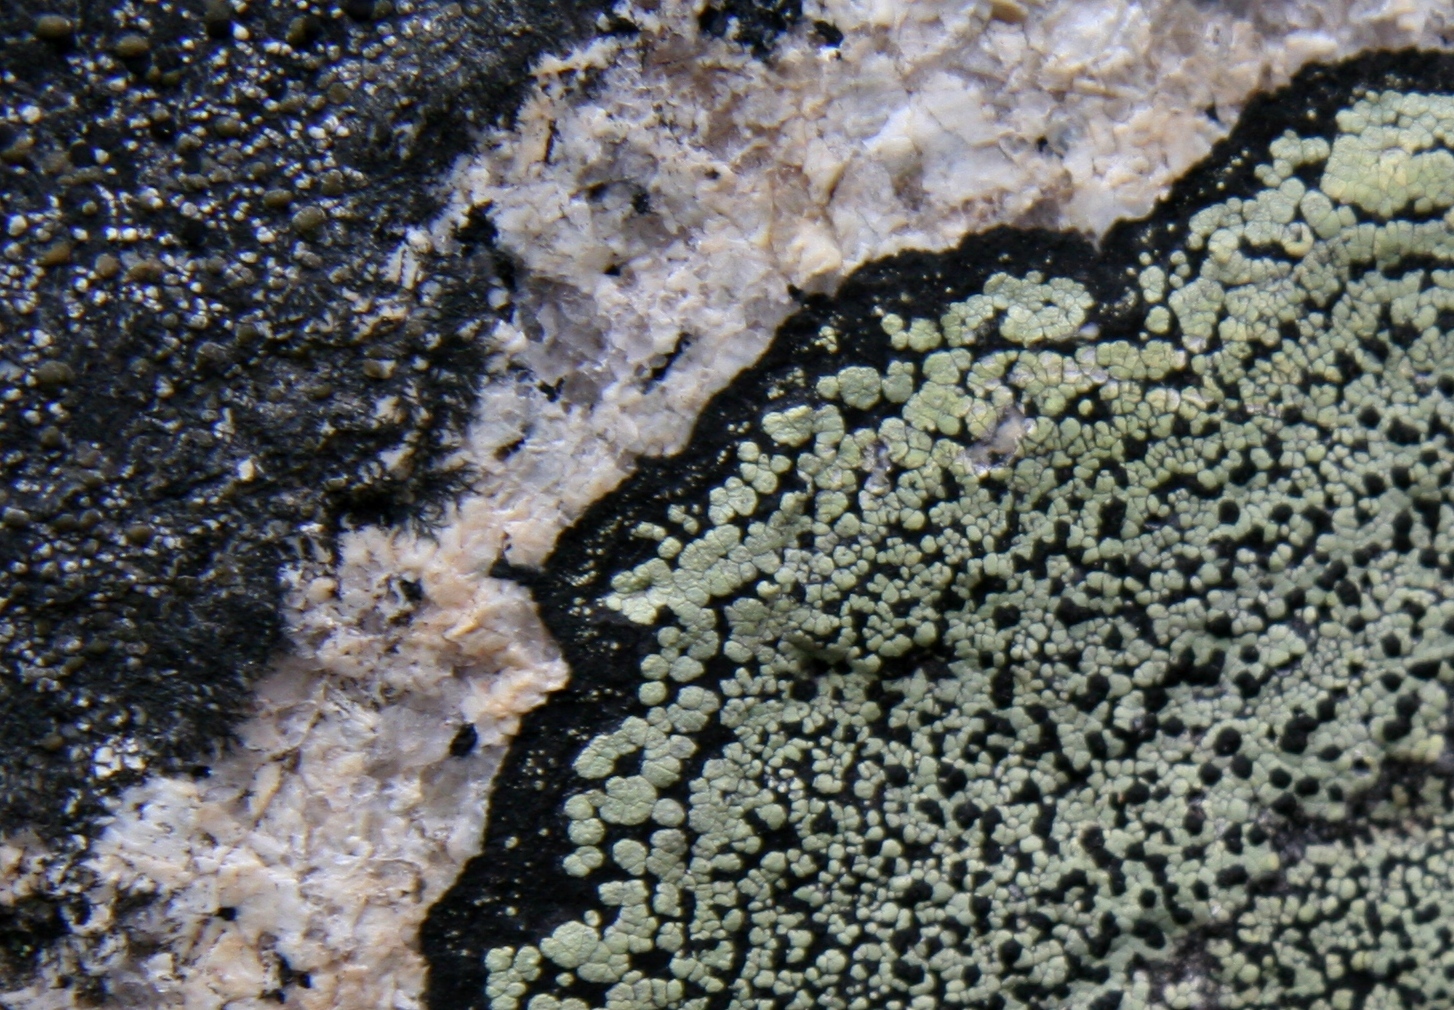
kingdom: Fungi
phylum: Ascomycota
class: Lecanoromycetes
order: Rhizocarpales
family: Rhizocarpaceae
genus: Rhizocarpon
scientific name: Rhizocarpon geographicum
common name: Yellow map lichen
